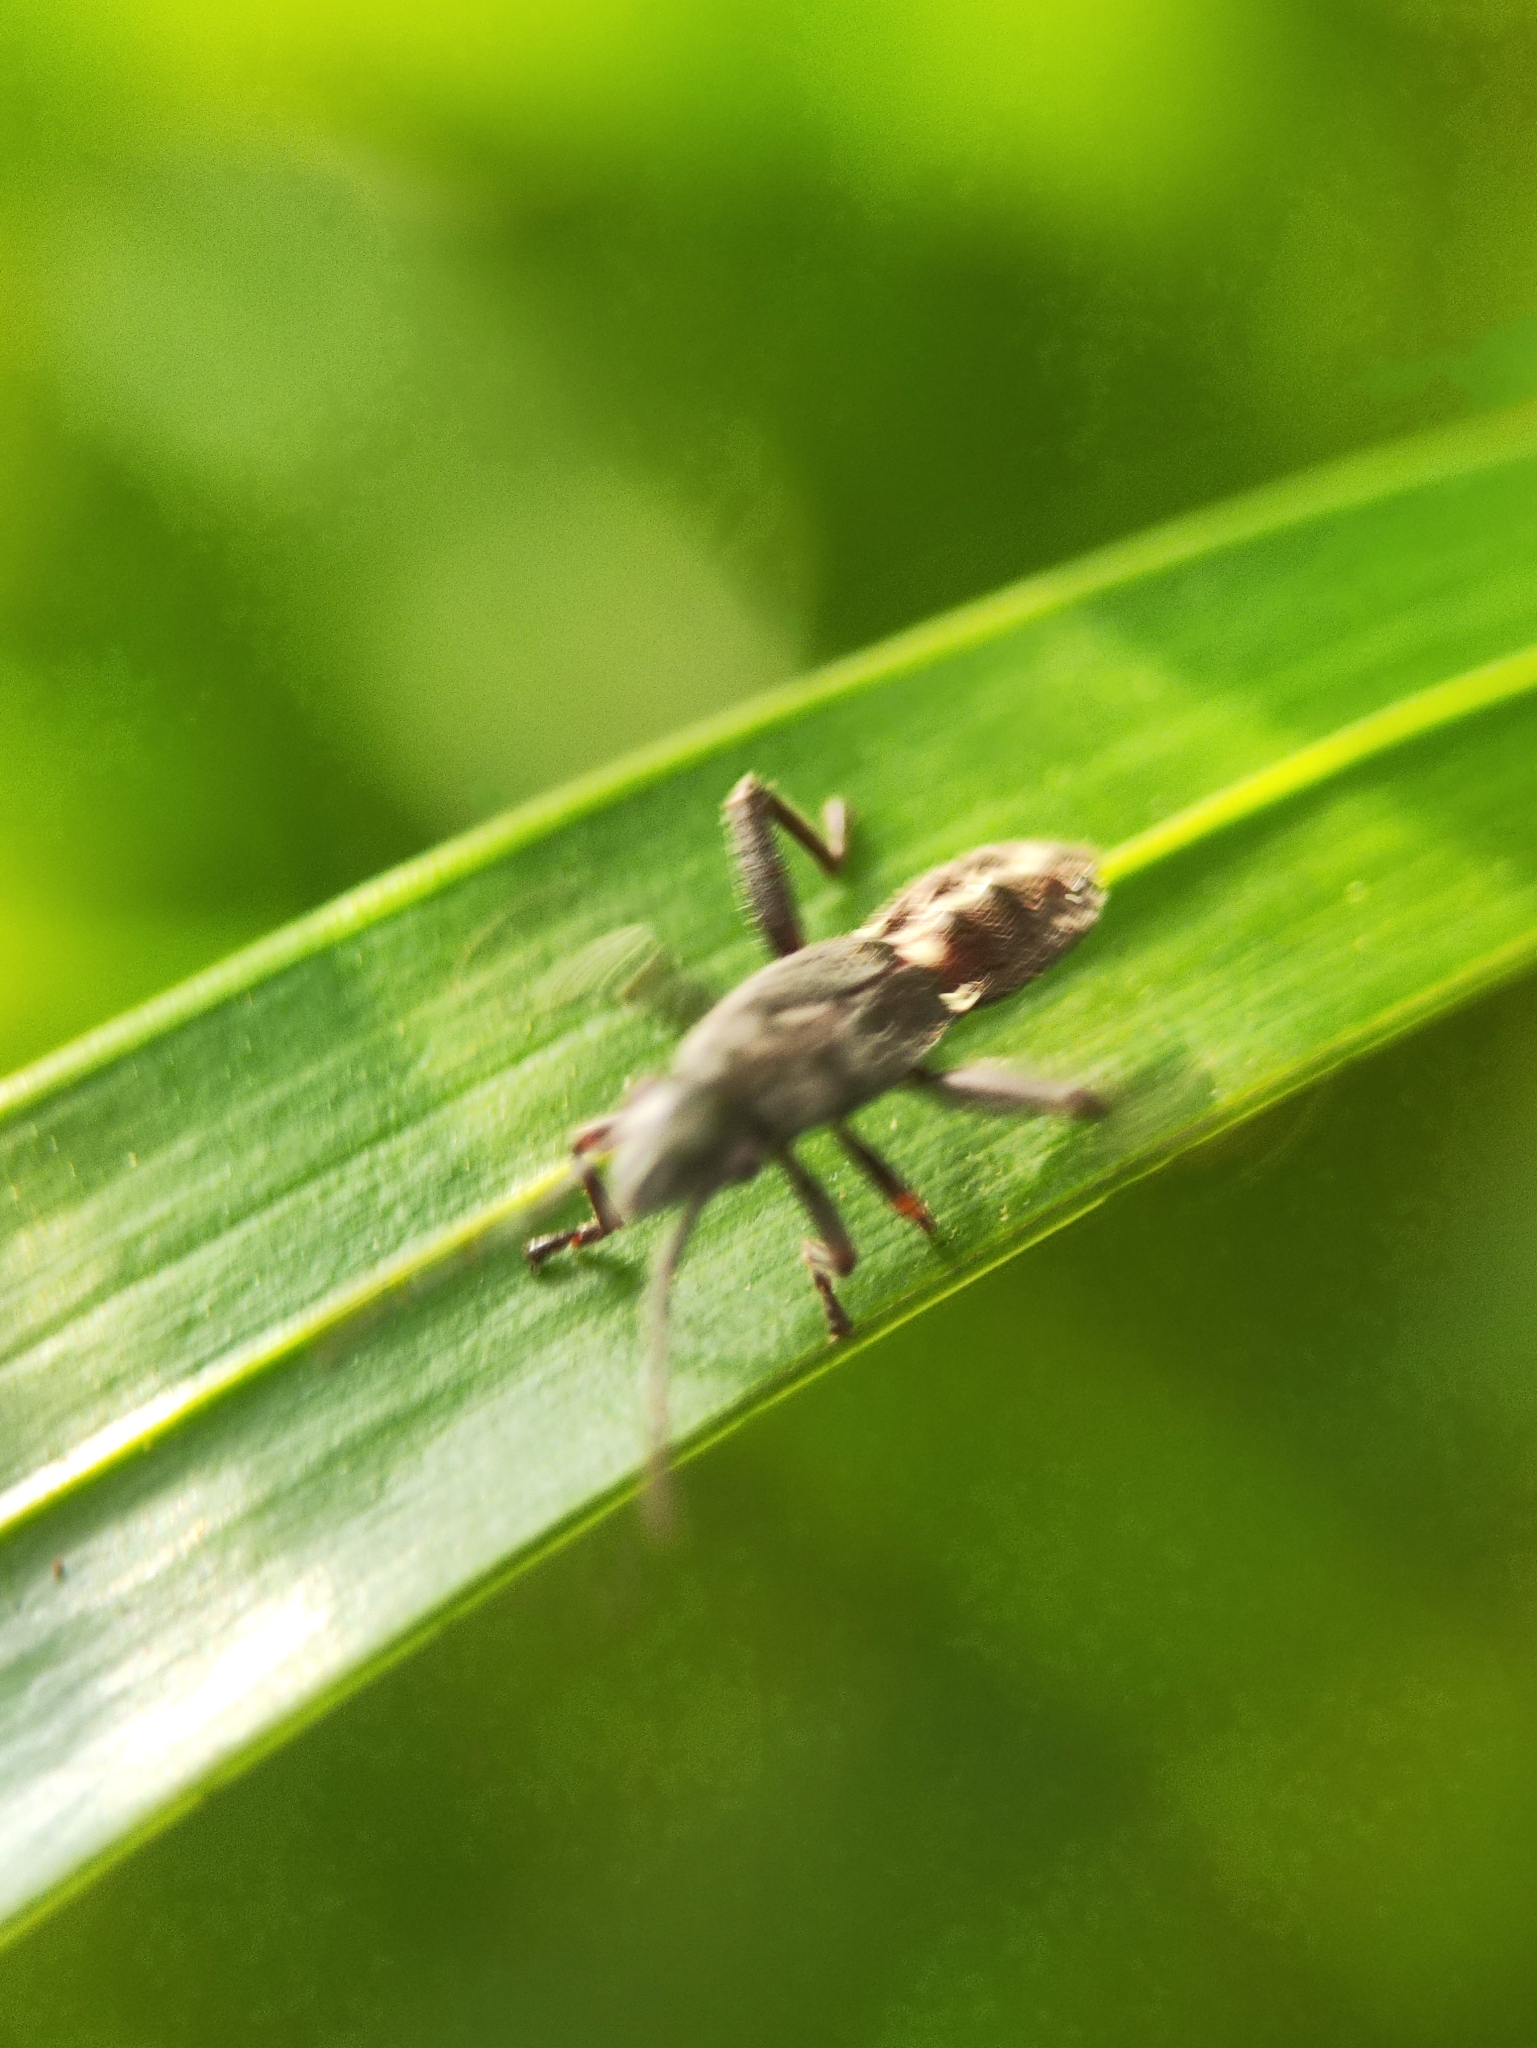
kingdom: Animalia
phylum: Arthropoda
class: Insecta
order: Hemiptera
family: Alydidae
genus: Daclera
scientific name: Daclera levana
